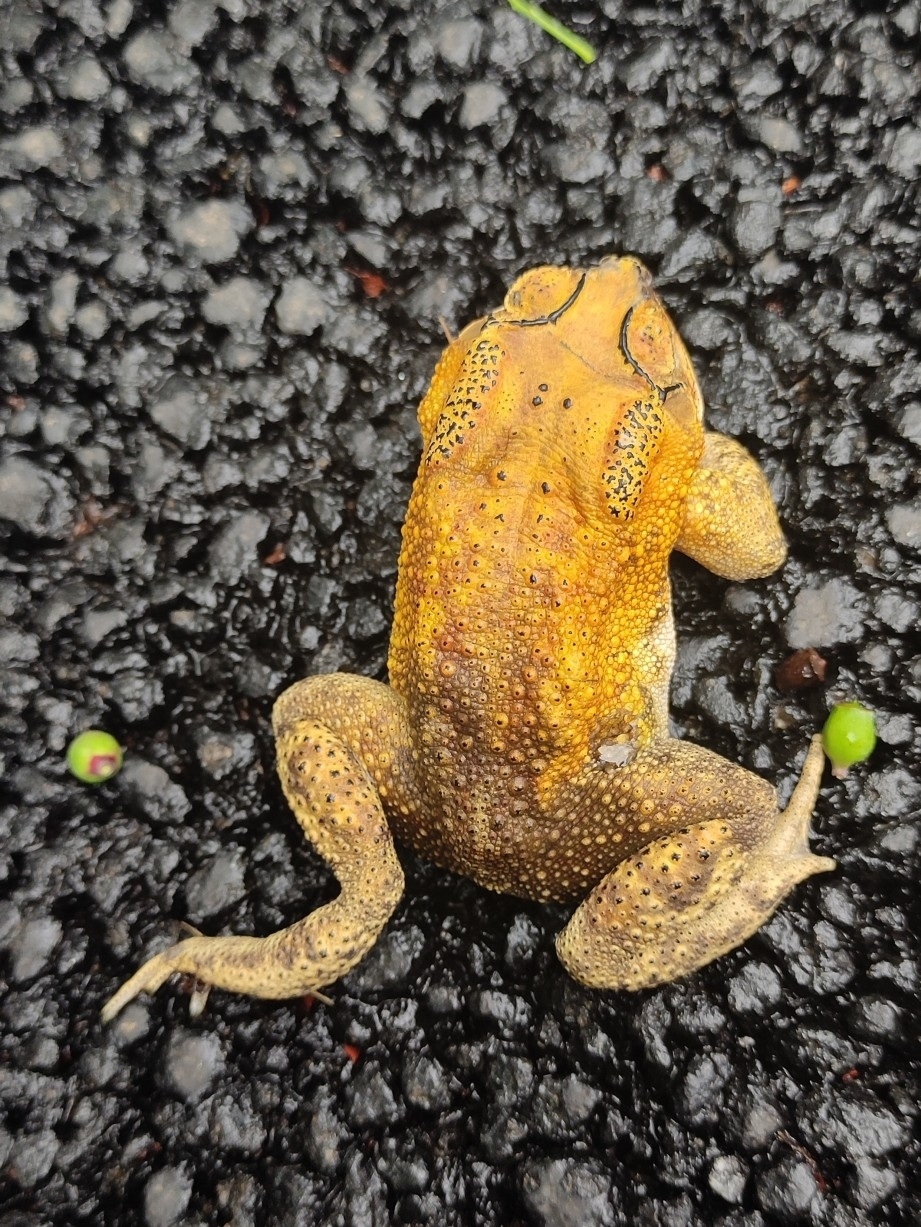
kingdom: Animalia
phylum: Chordata
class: Amphibia
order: Anura
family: Bufonidae
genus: Duttaphrynus
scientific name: Duttaphrynus melanostictus
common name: Common sunda toad
